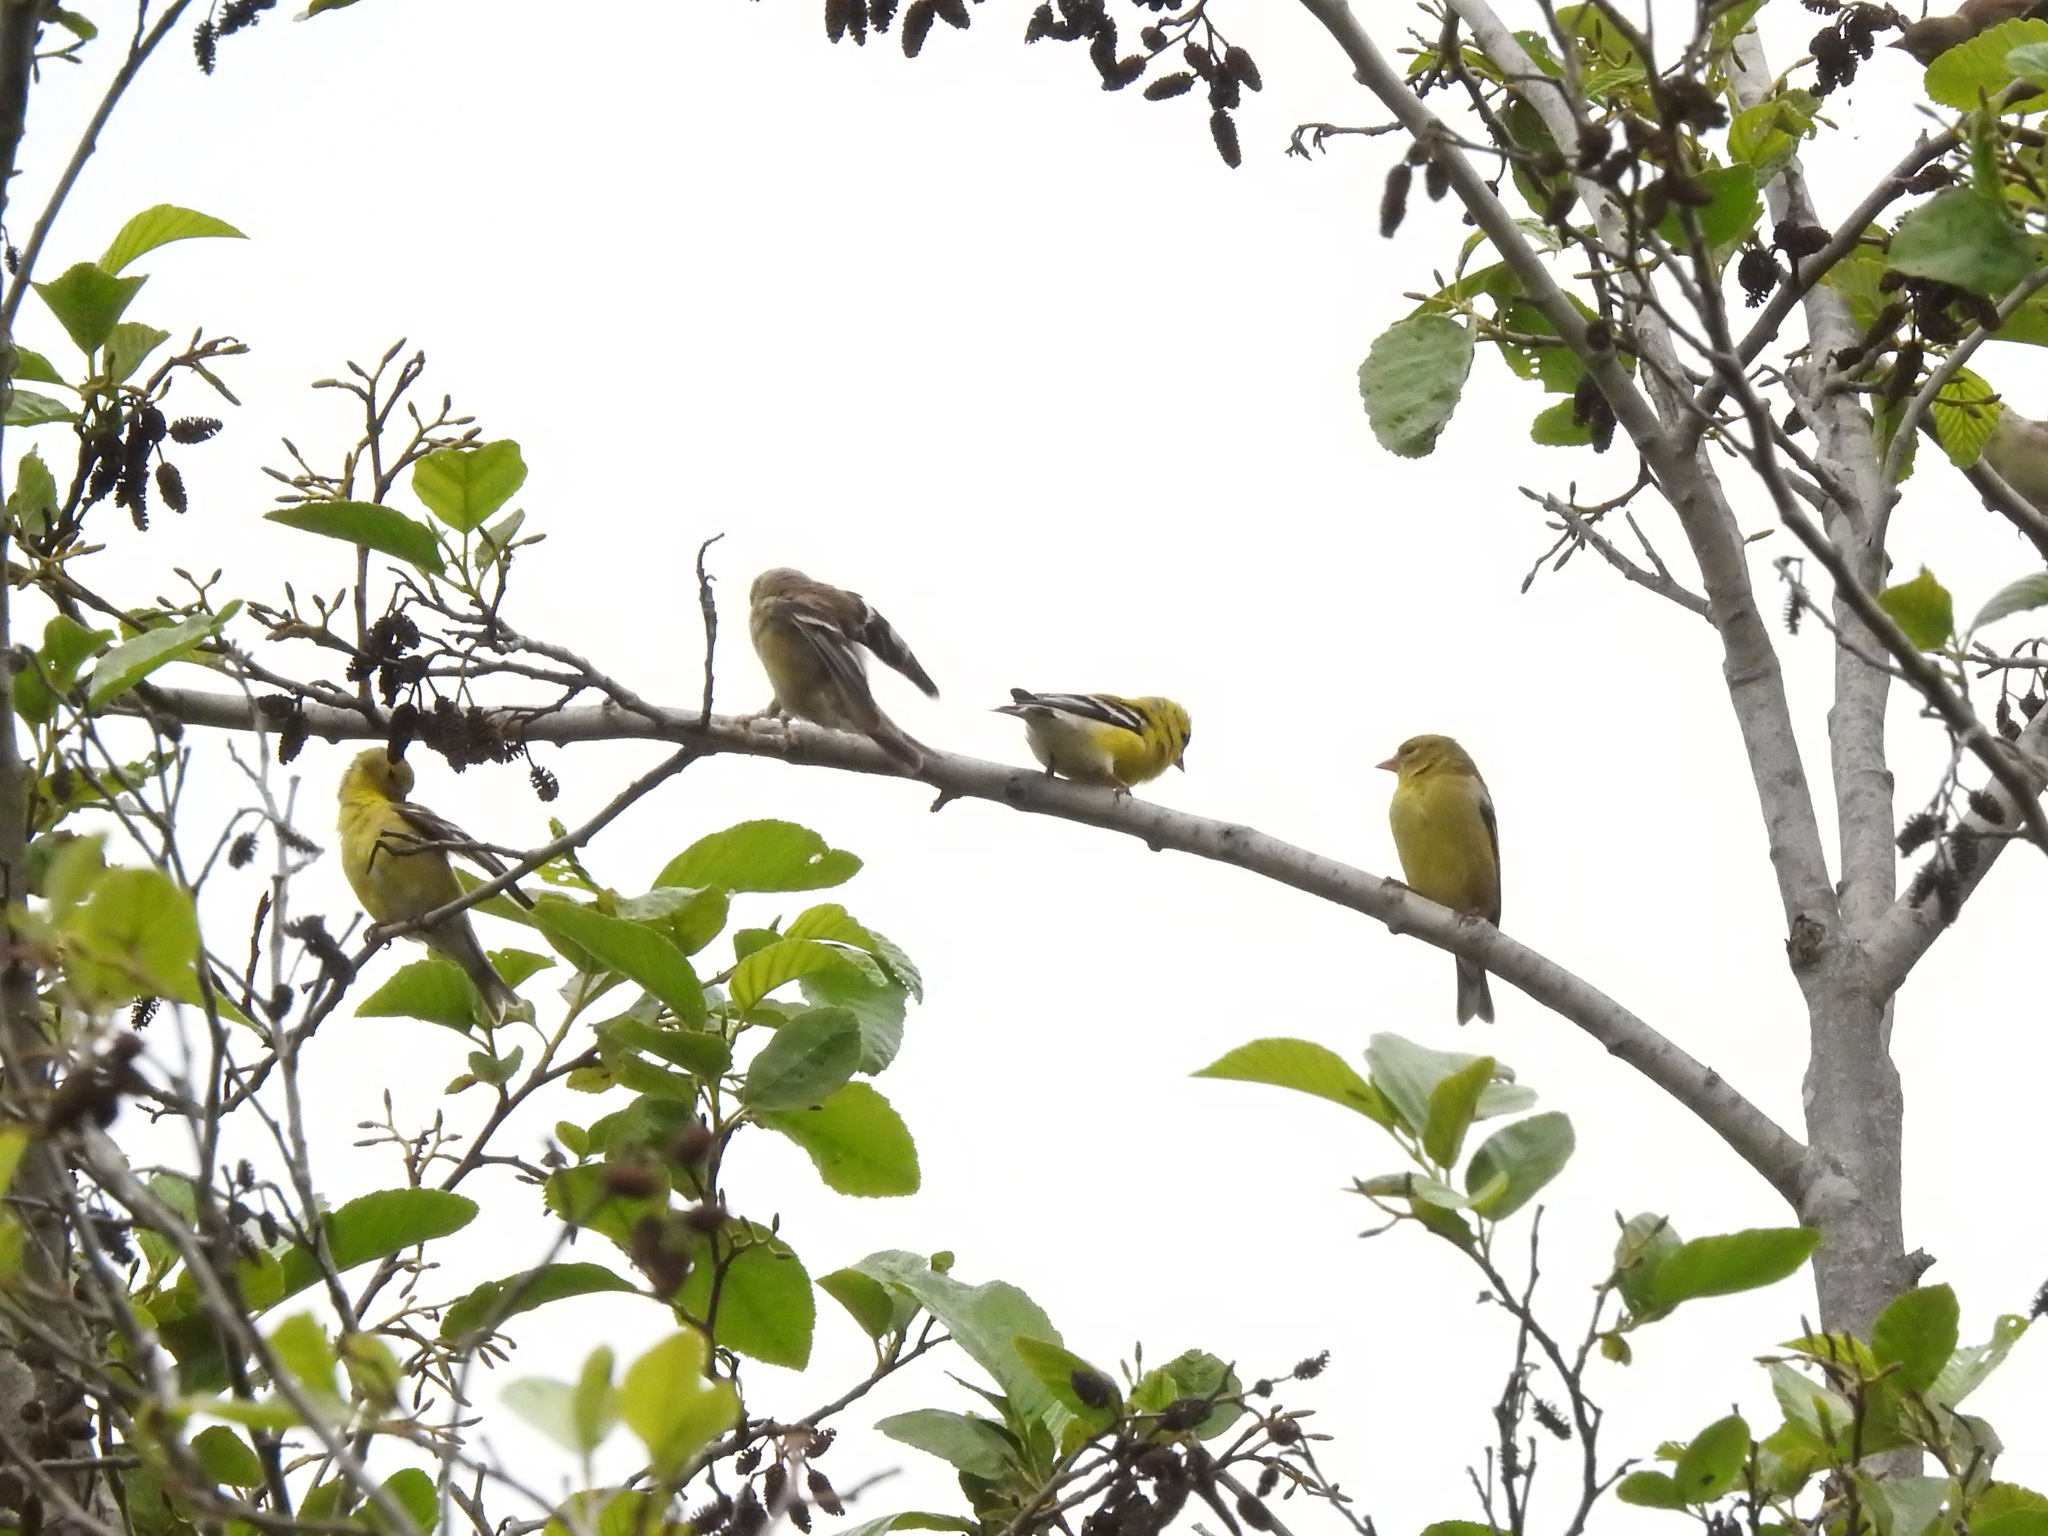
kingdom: Animalia
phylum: Chordata
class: Aves
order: Passeriformes
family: Fringillidae
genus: Spinus
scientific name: Spinus tristis
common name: American goldfinch
